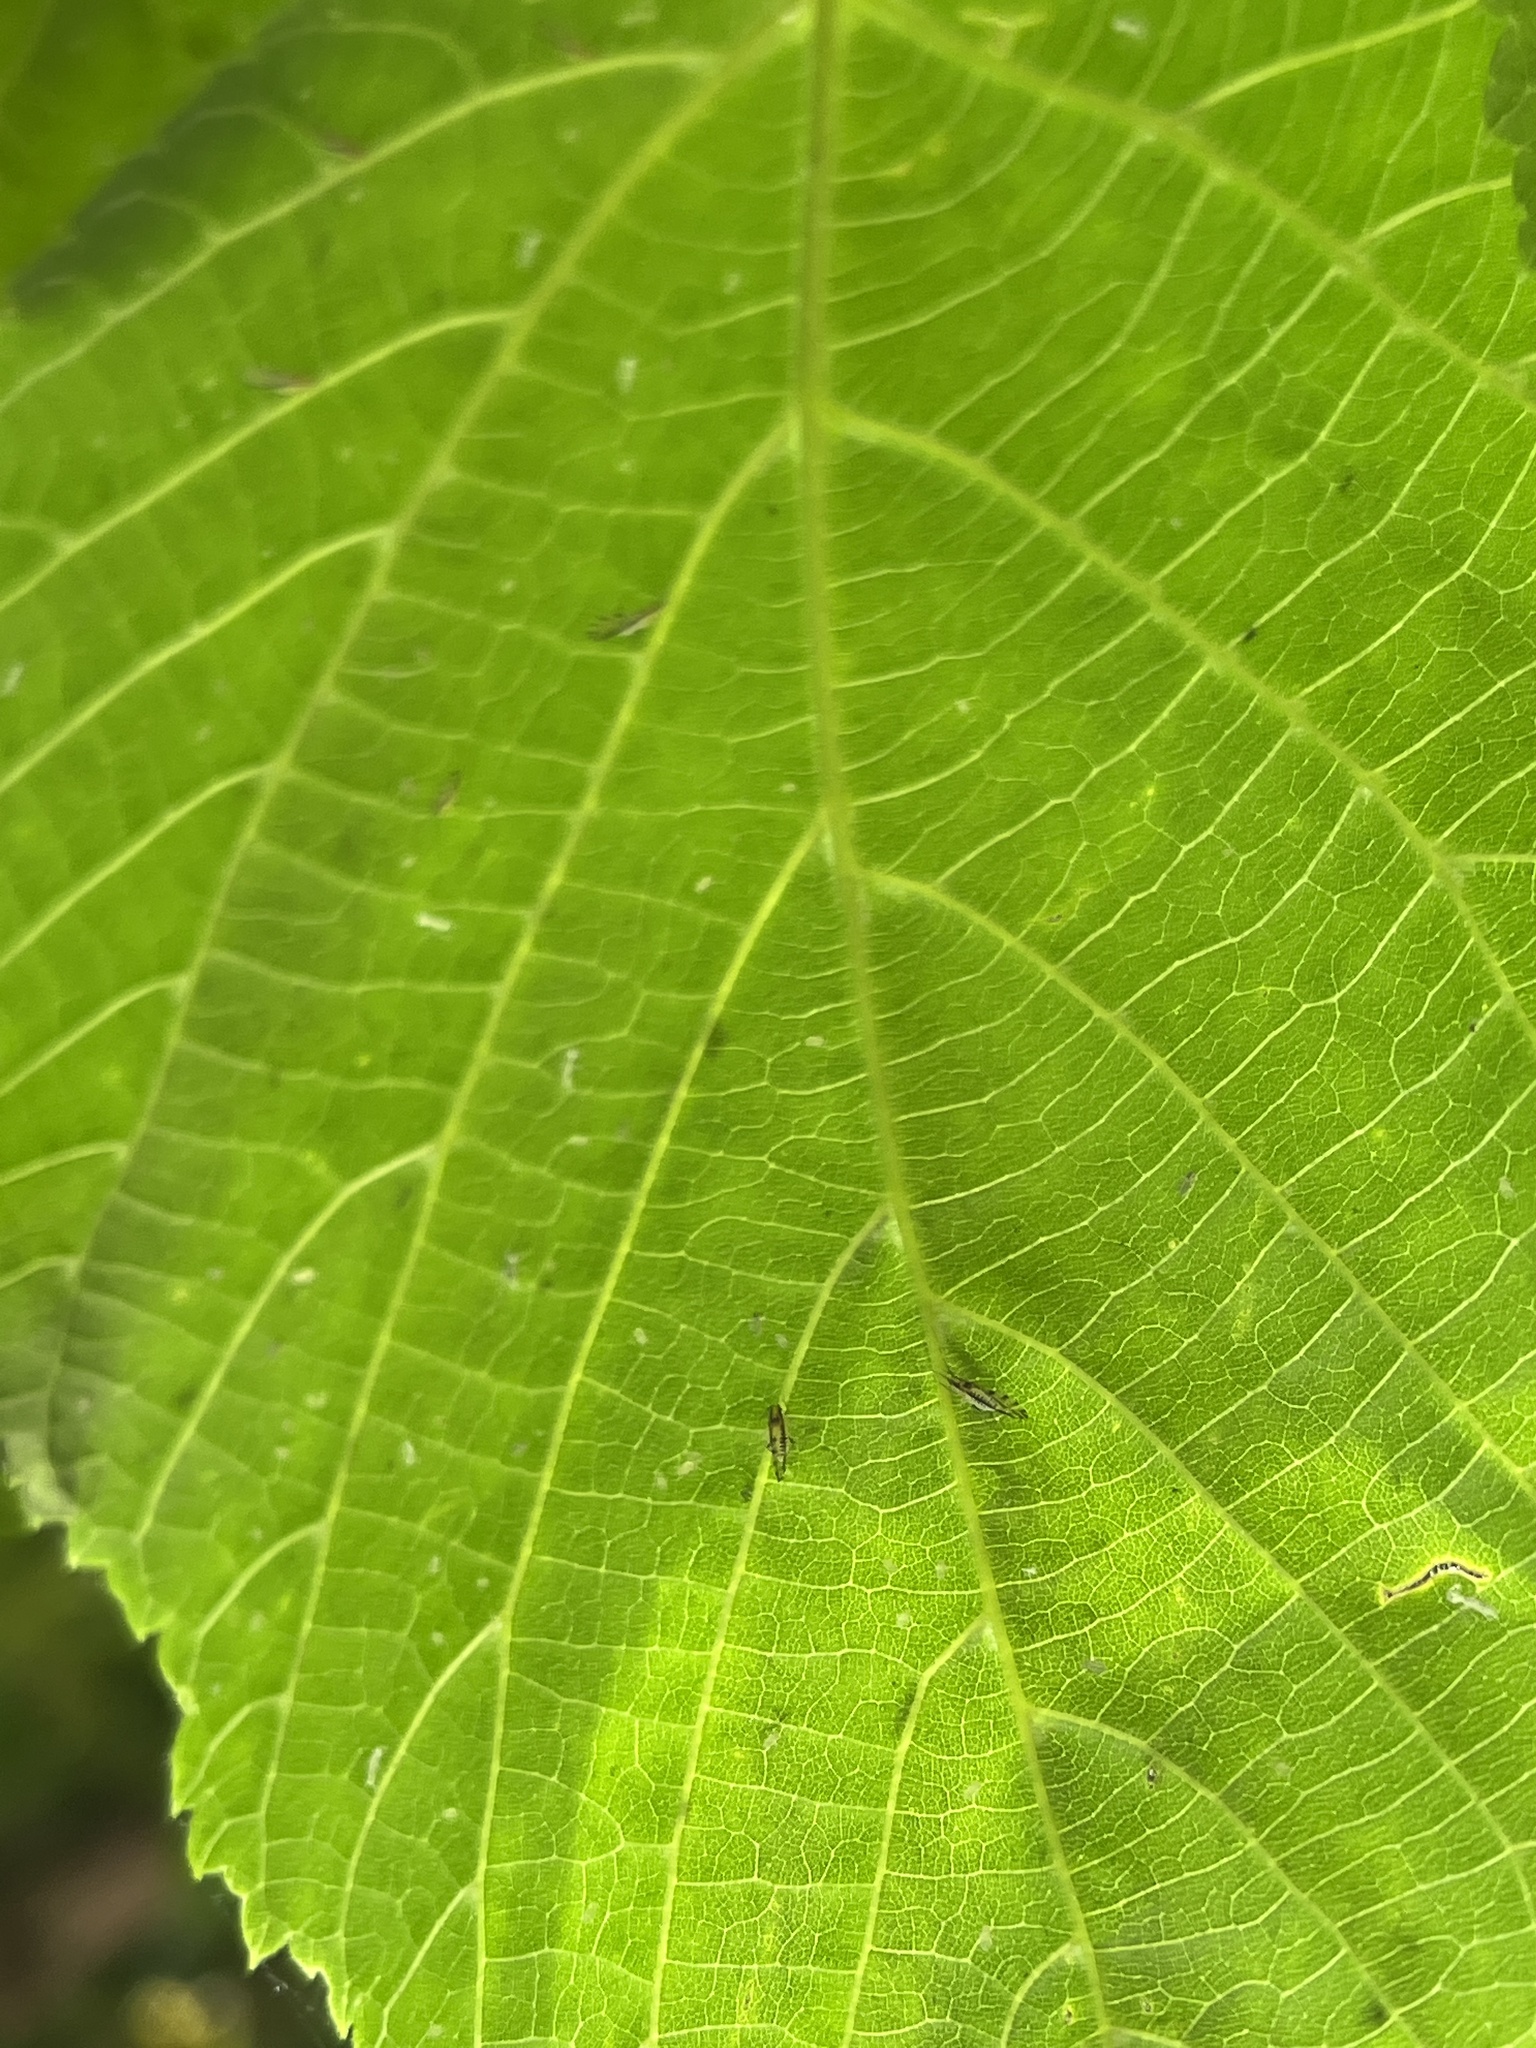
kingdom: Animalia
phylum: Arthropoda
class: Insecta
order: Hemiptera
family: Aphididae
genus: Eucallipterus
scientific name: Eucallipterus tiliae
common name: Aphid
